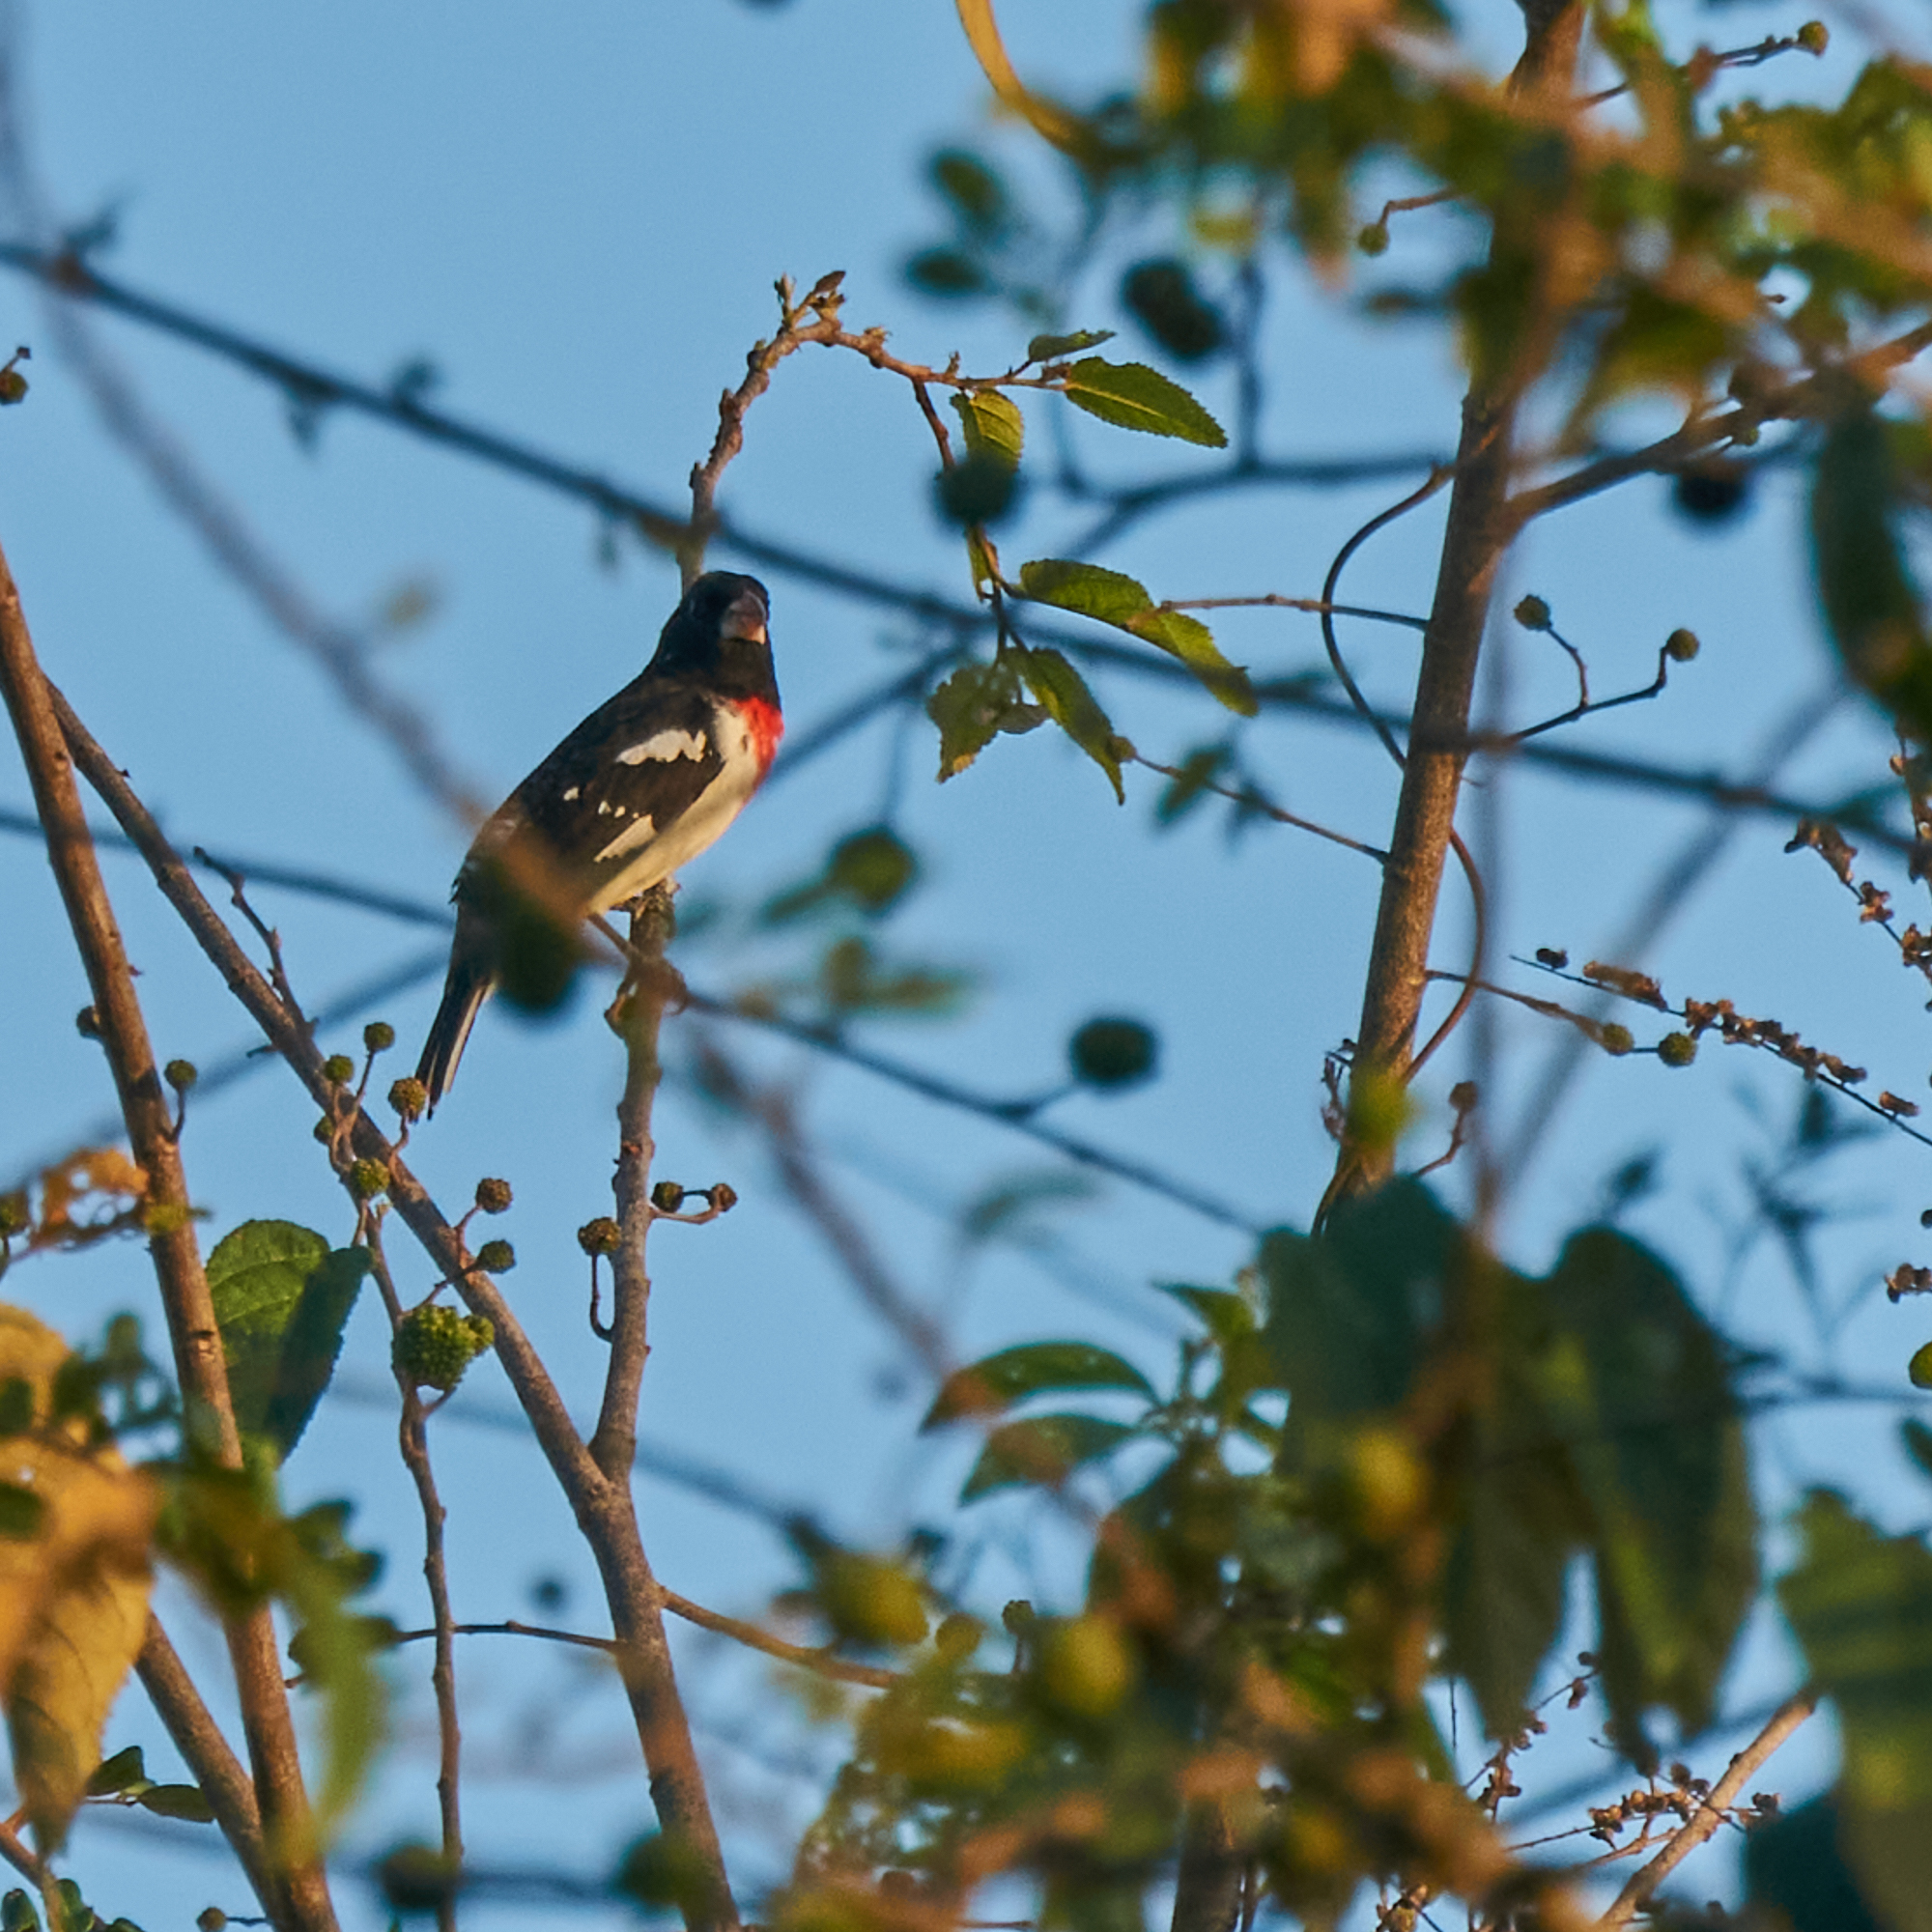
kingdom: Animalia
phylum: Chordata
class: Aves
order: Passeriformes
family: Cardinalidae
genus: Pheucticus
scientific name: Pheucticus ludovicianus
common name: Rose-breasted grosbeak
